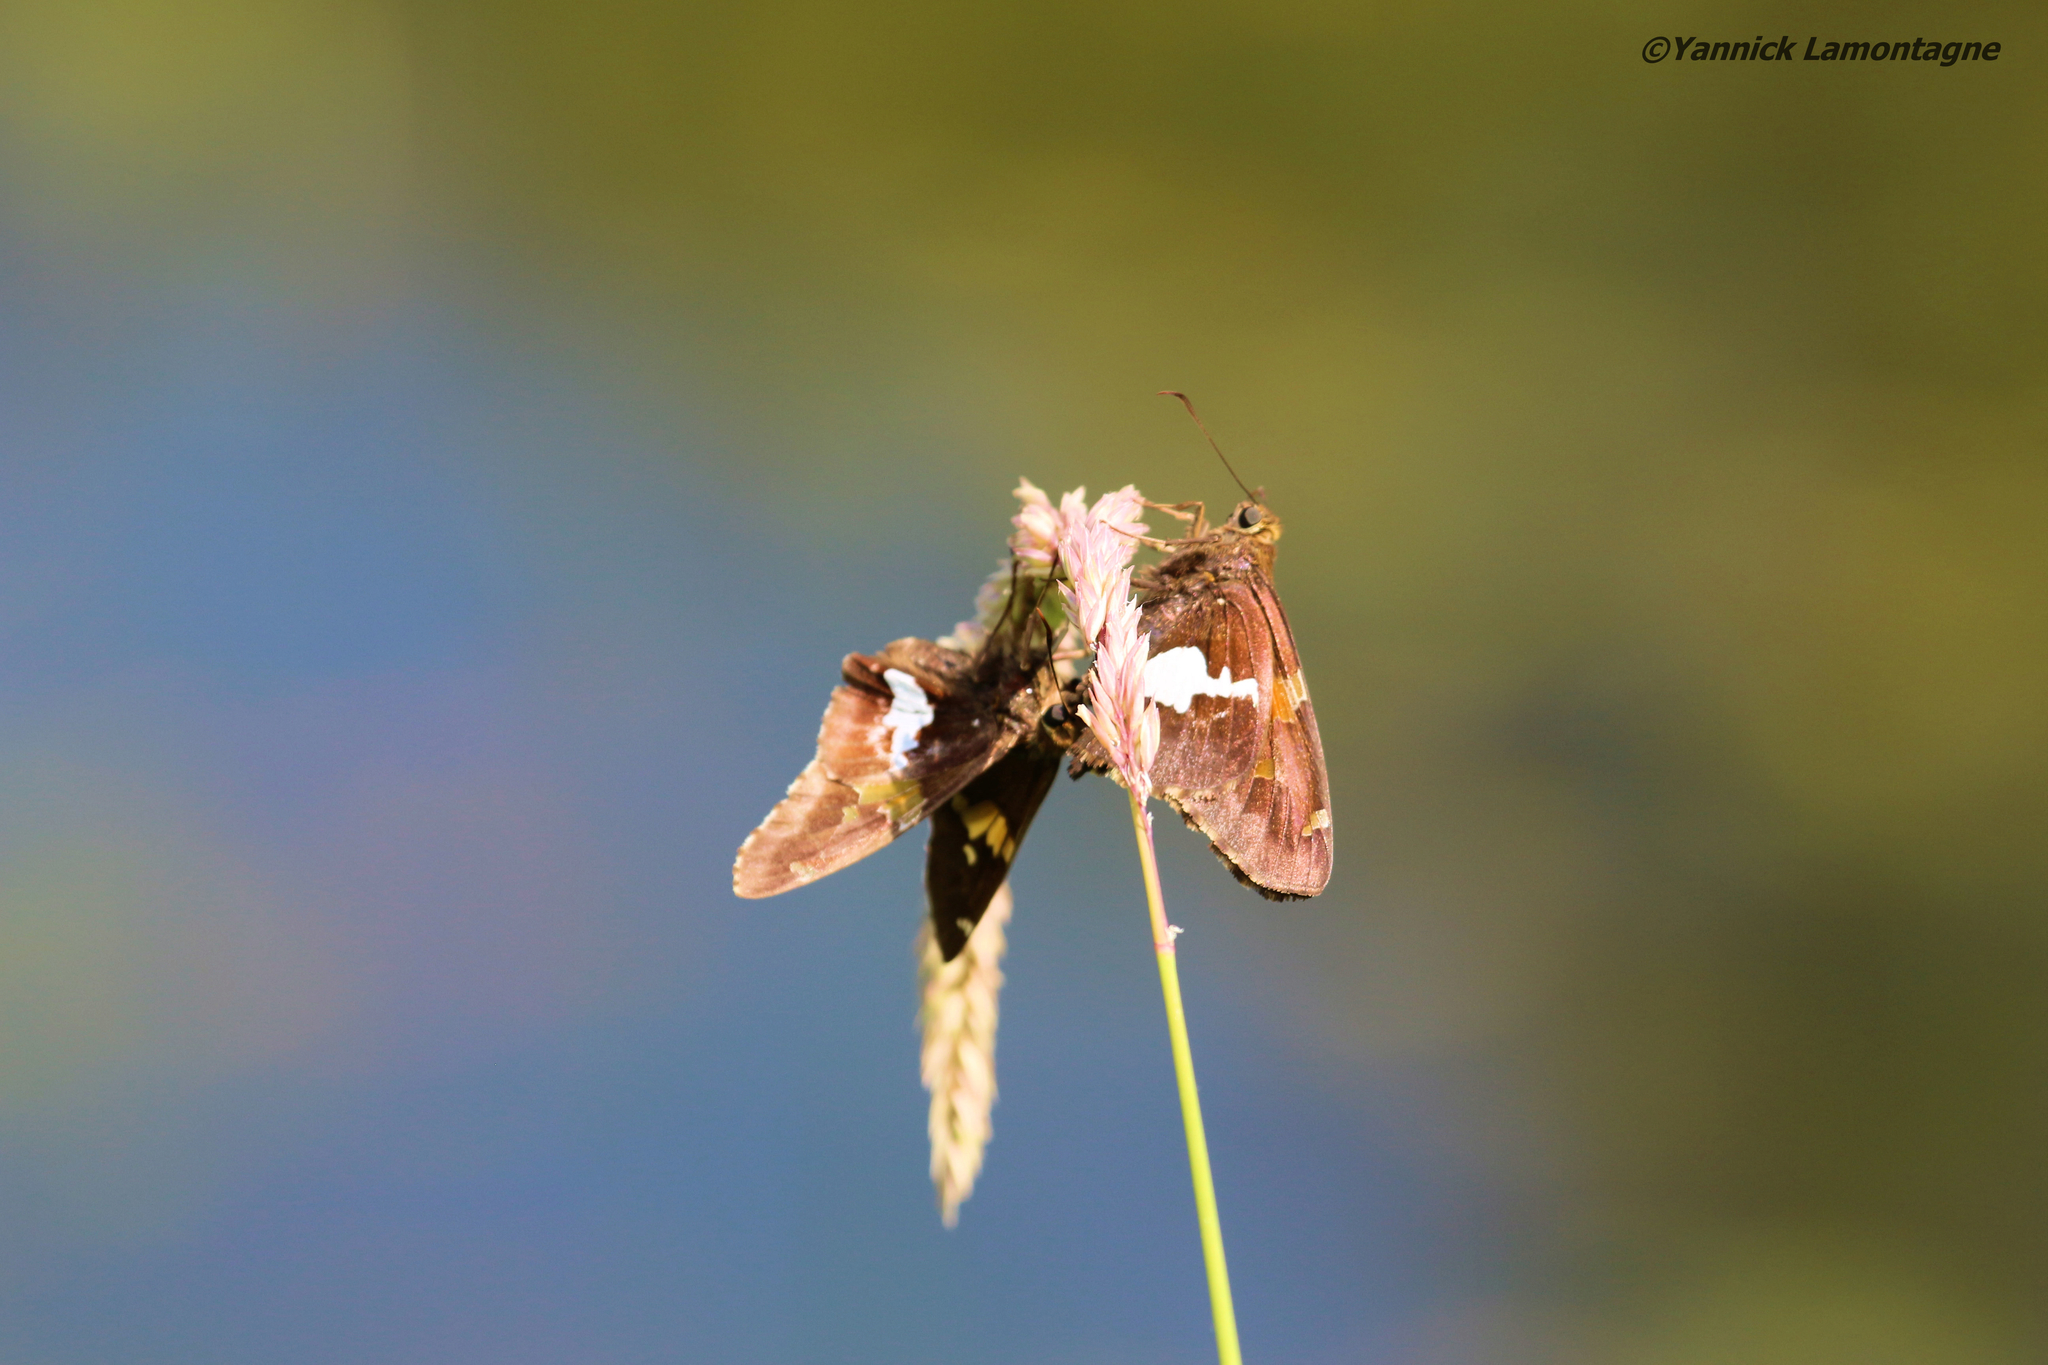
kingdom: Animalia
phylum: Arthropoda
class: Insecta
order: Lepidoptera
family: Hesperiidae
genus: Epargyreus
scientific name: Epargyreus clarus
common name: Silver-spotted skipper
